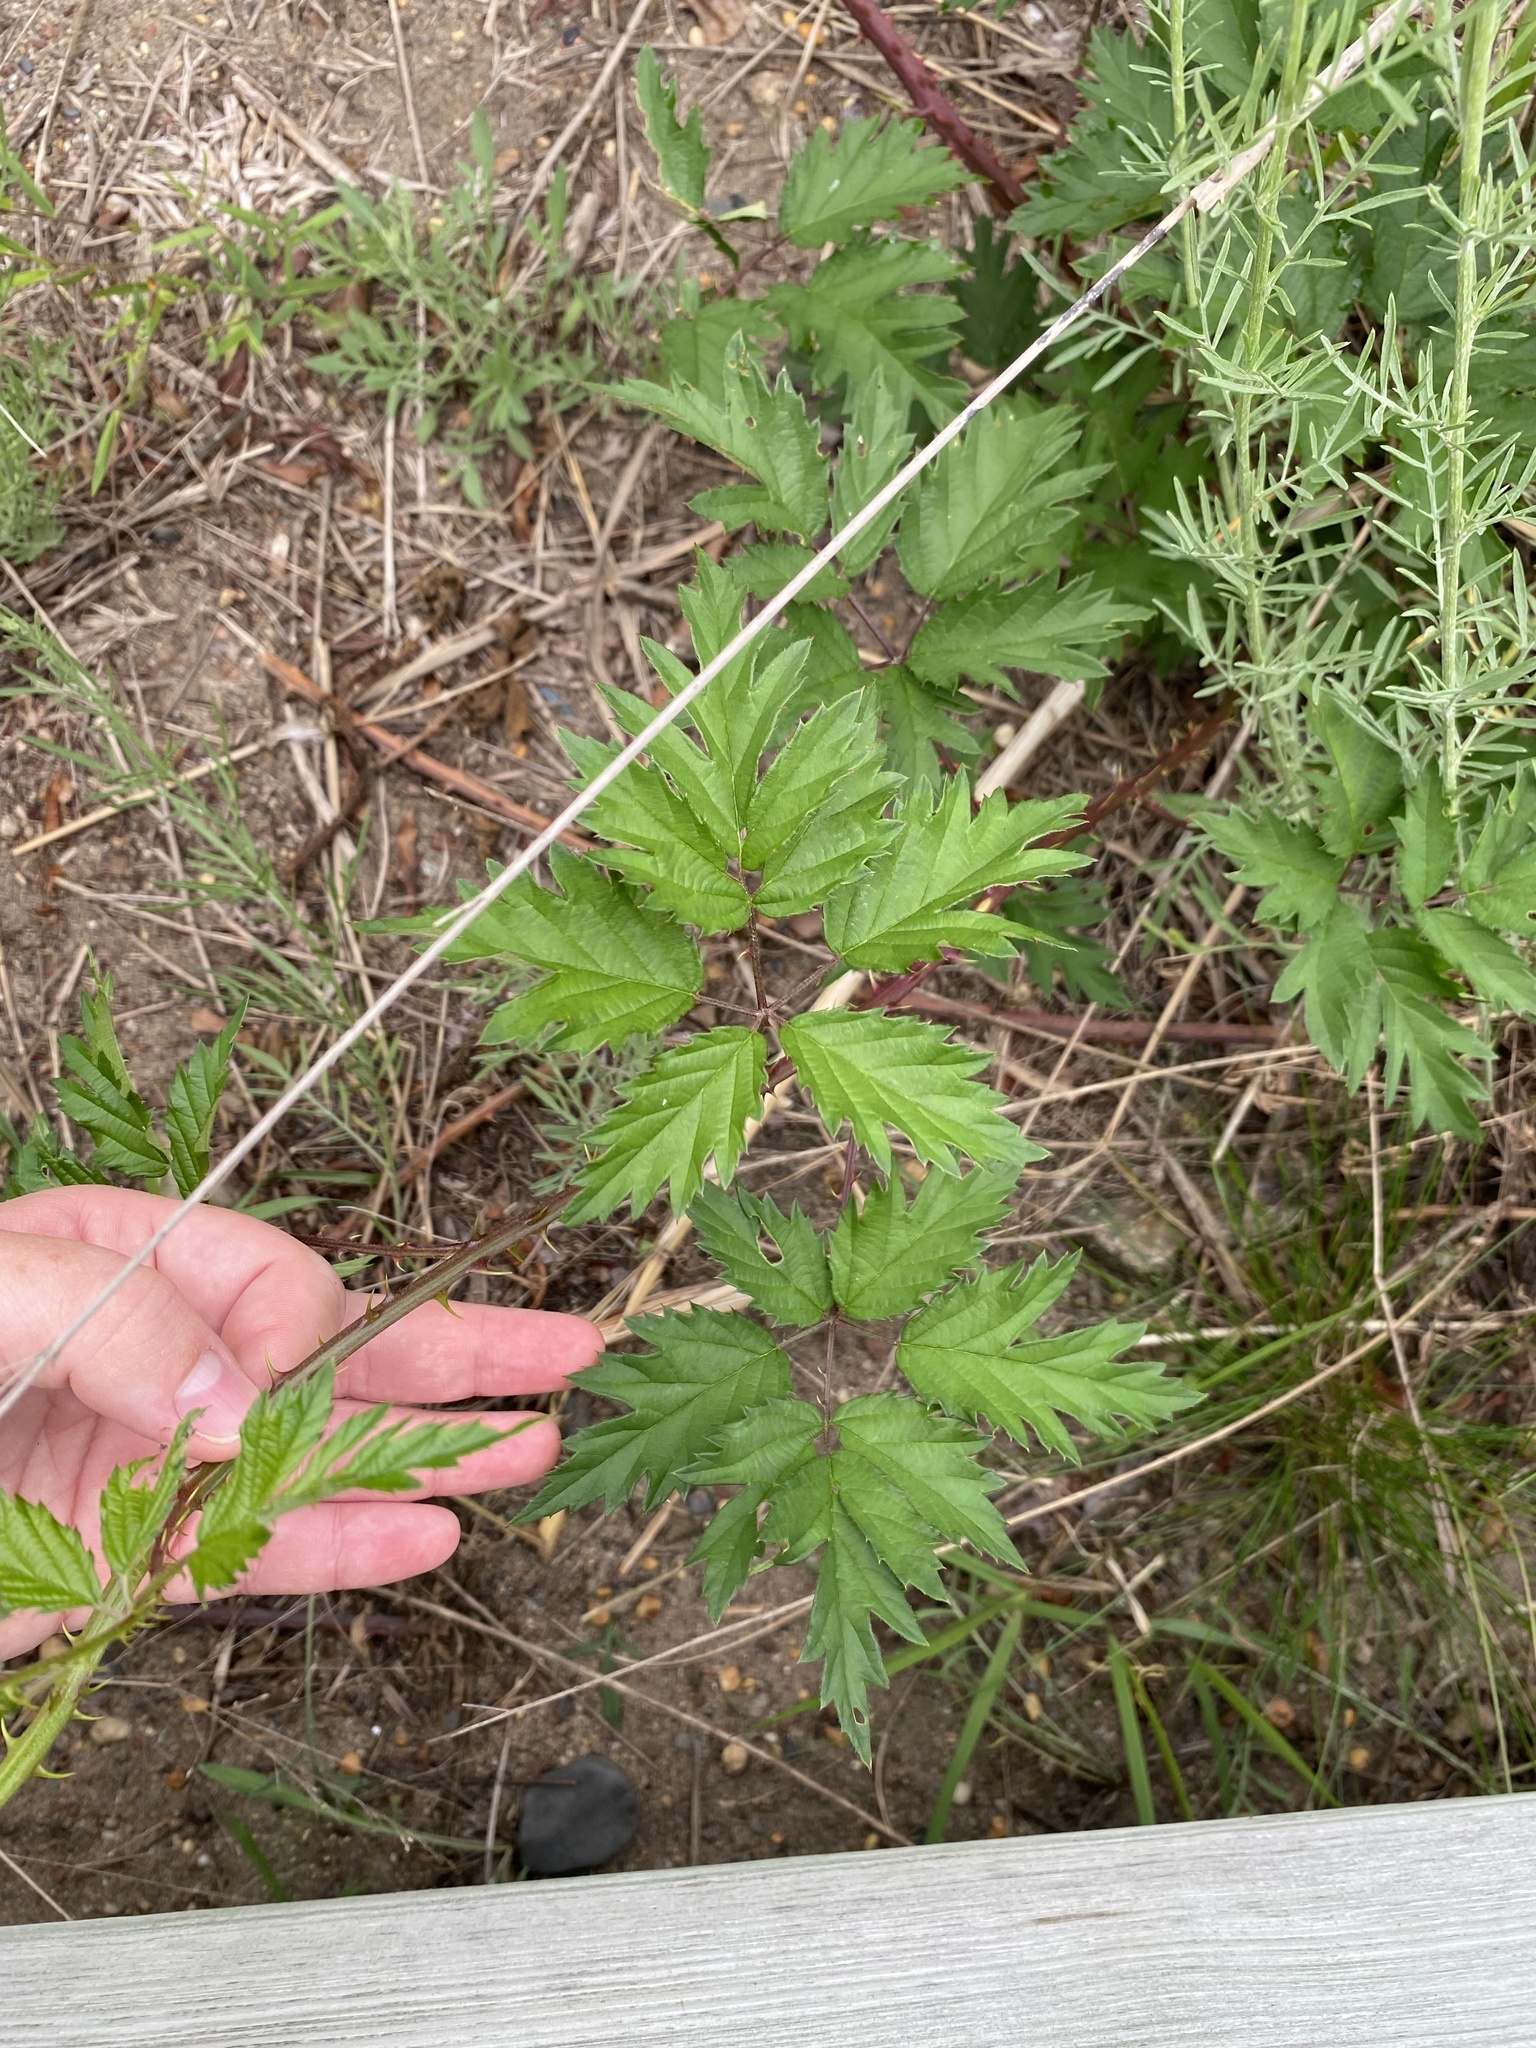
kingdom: Plantae
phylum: Tracheophyta
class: Magnoliopsida
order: Rosales
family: Rosaceae
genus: Rubus
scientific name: Rubus laciniatus
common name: Evergreen blackberry
